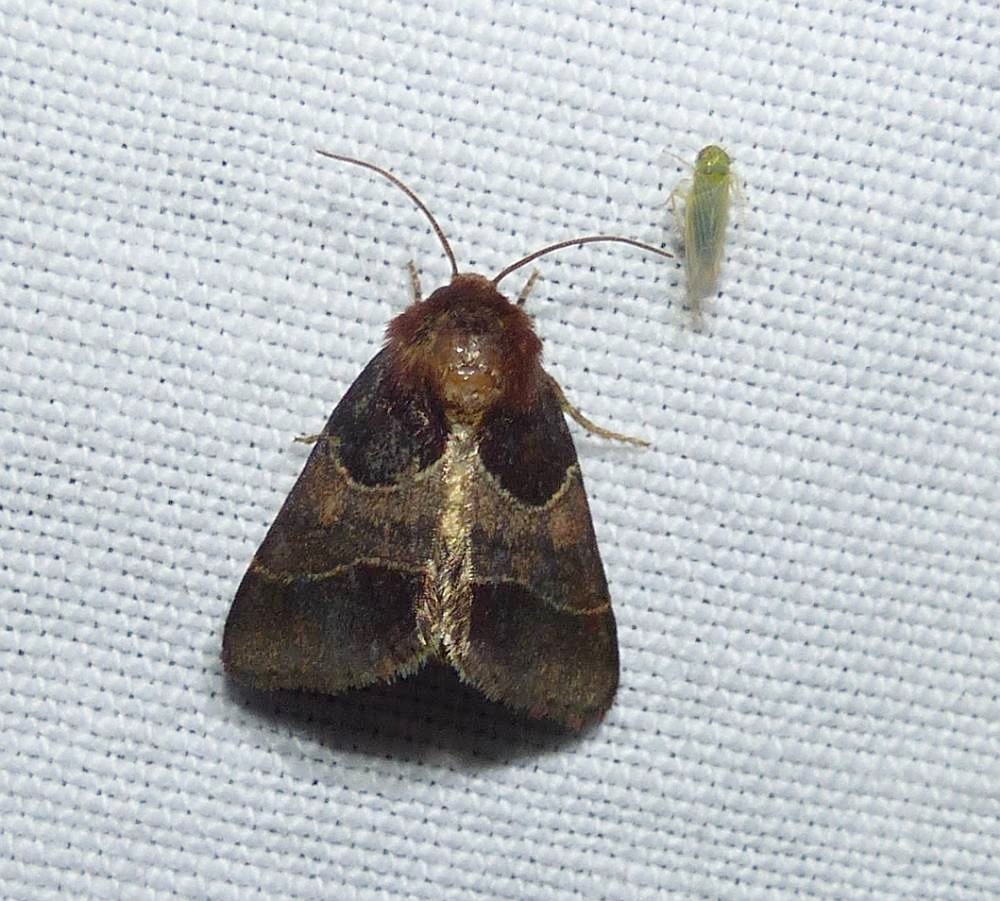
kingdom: Animalia
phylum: Arthropoda
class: Insecta
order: Lepidoptera
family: Noctuidae
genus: Schinia
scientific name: Schinia arcigera
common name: Arcigera flower moth
